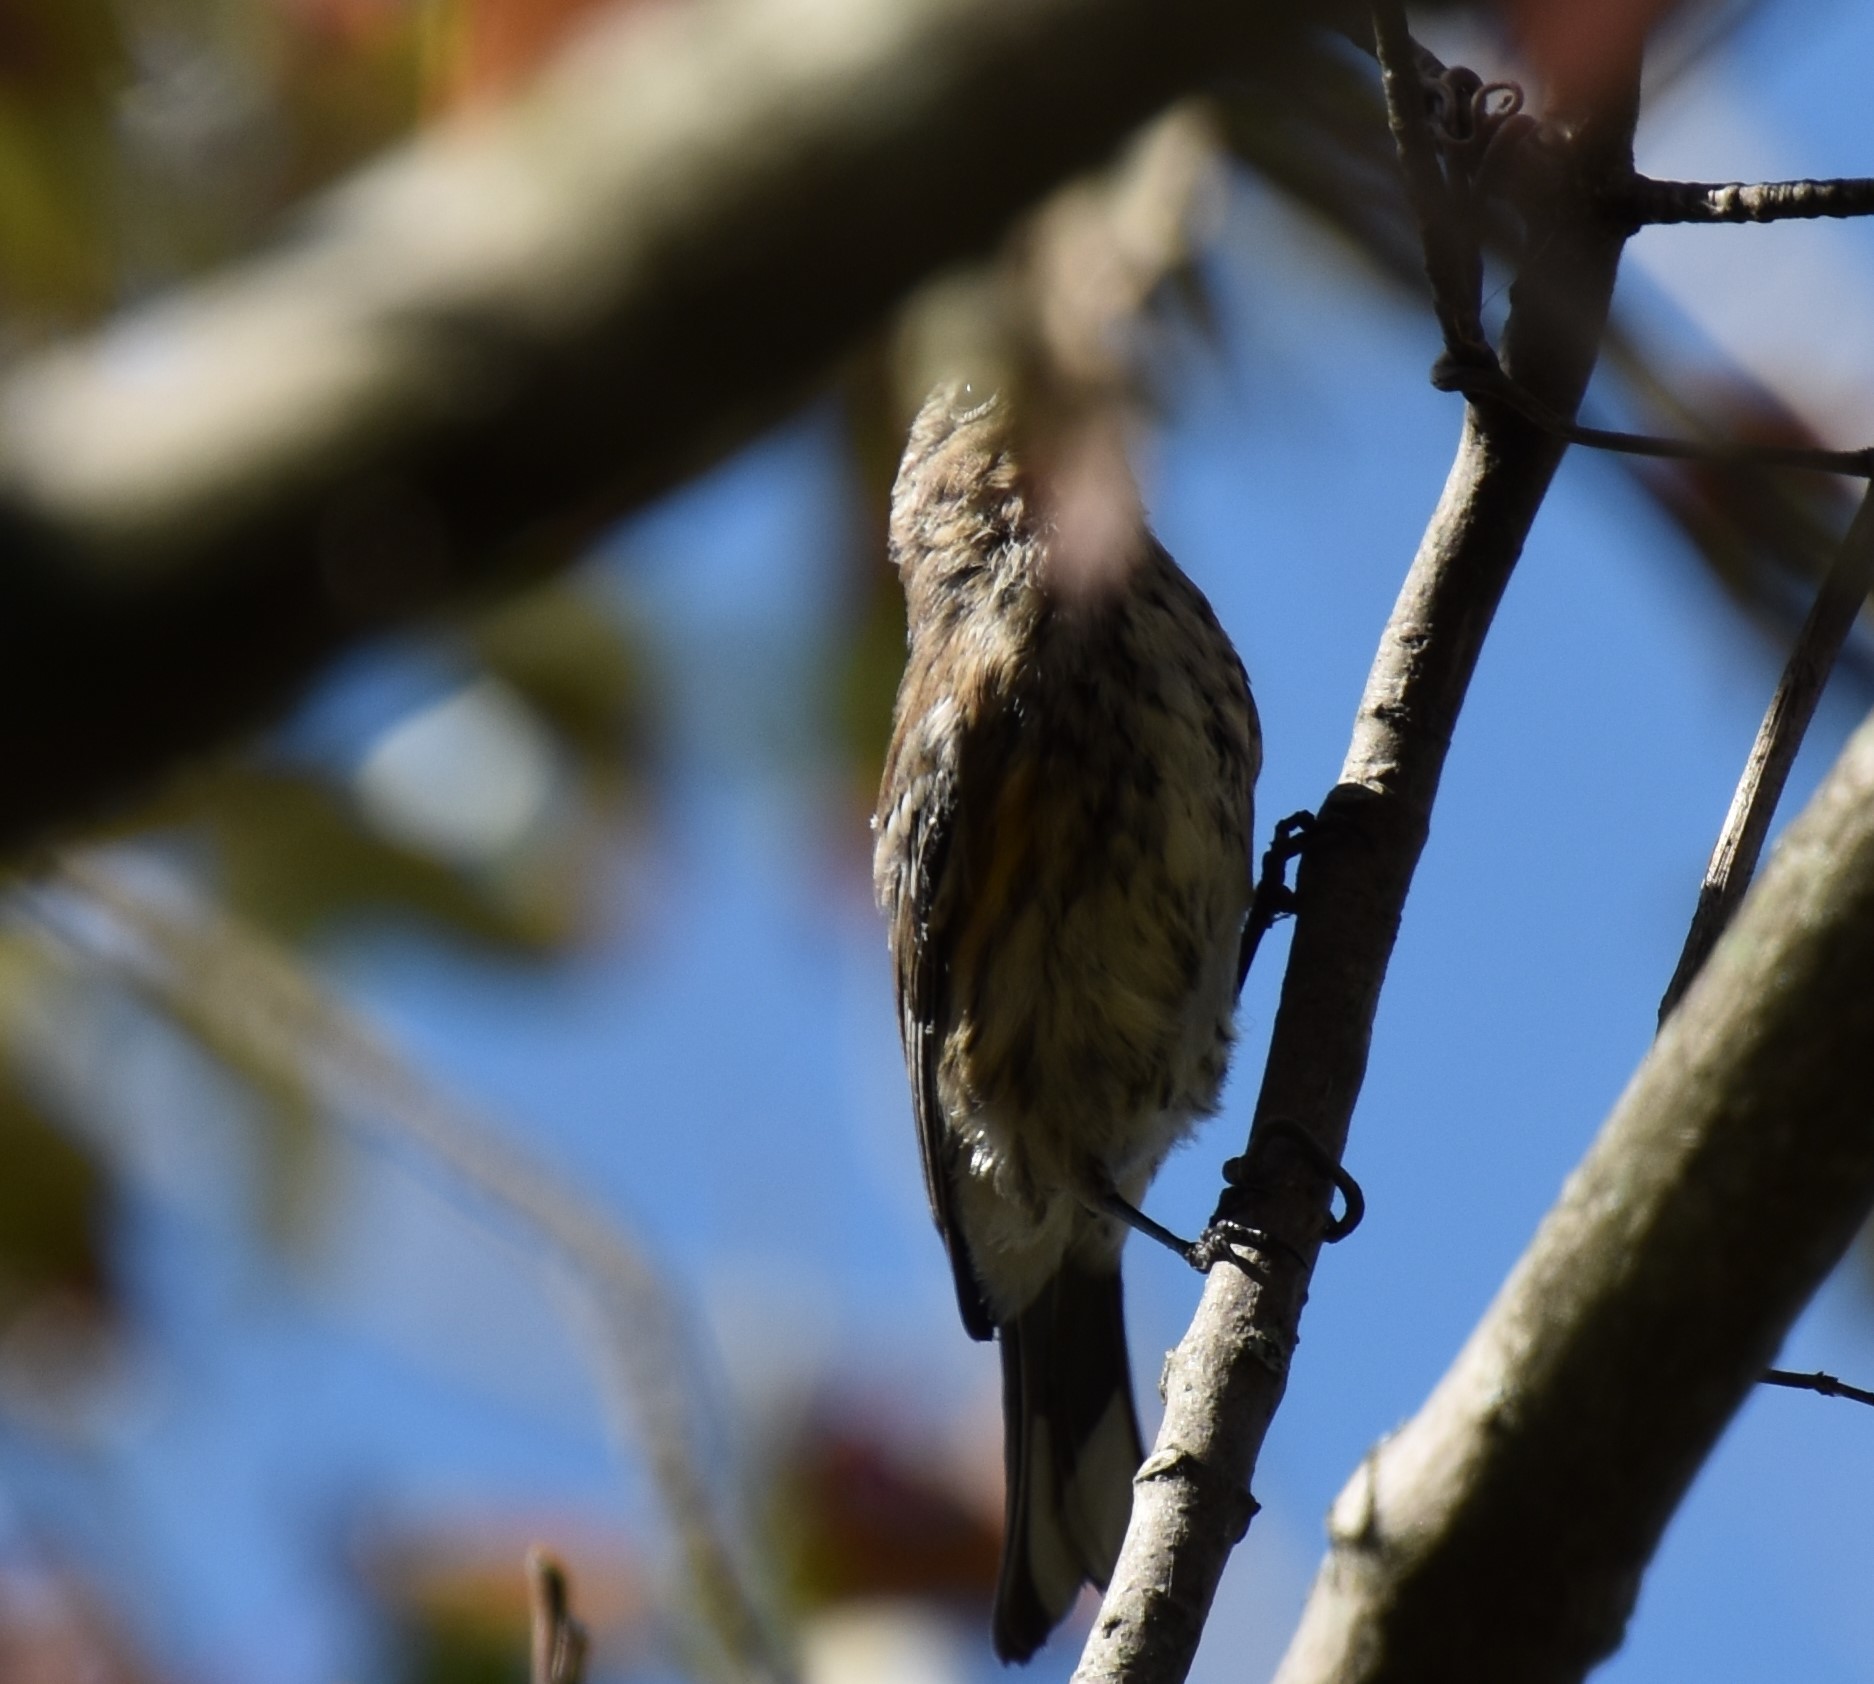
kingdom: Animalia
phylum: Chordata
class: Aves
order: Passeriformes
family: Parulidae
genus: Setophaga
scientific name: Setophaga coronata
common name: Myrtle warbler
